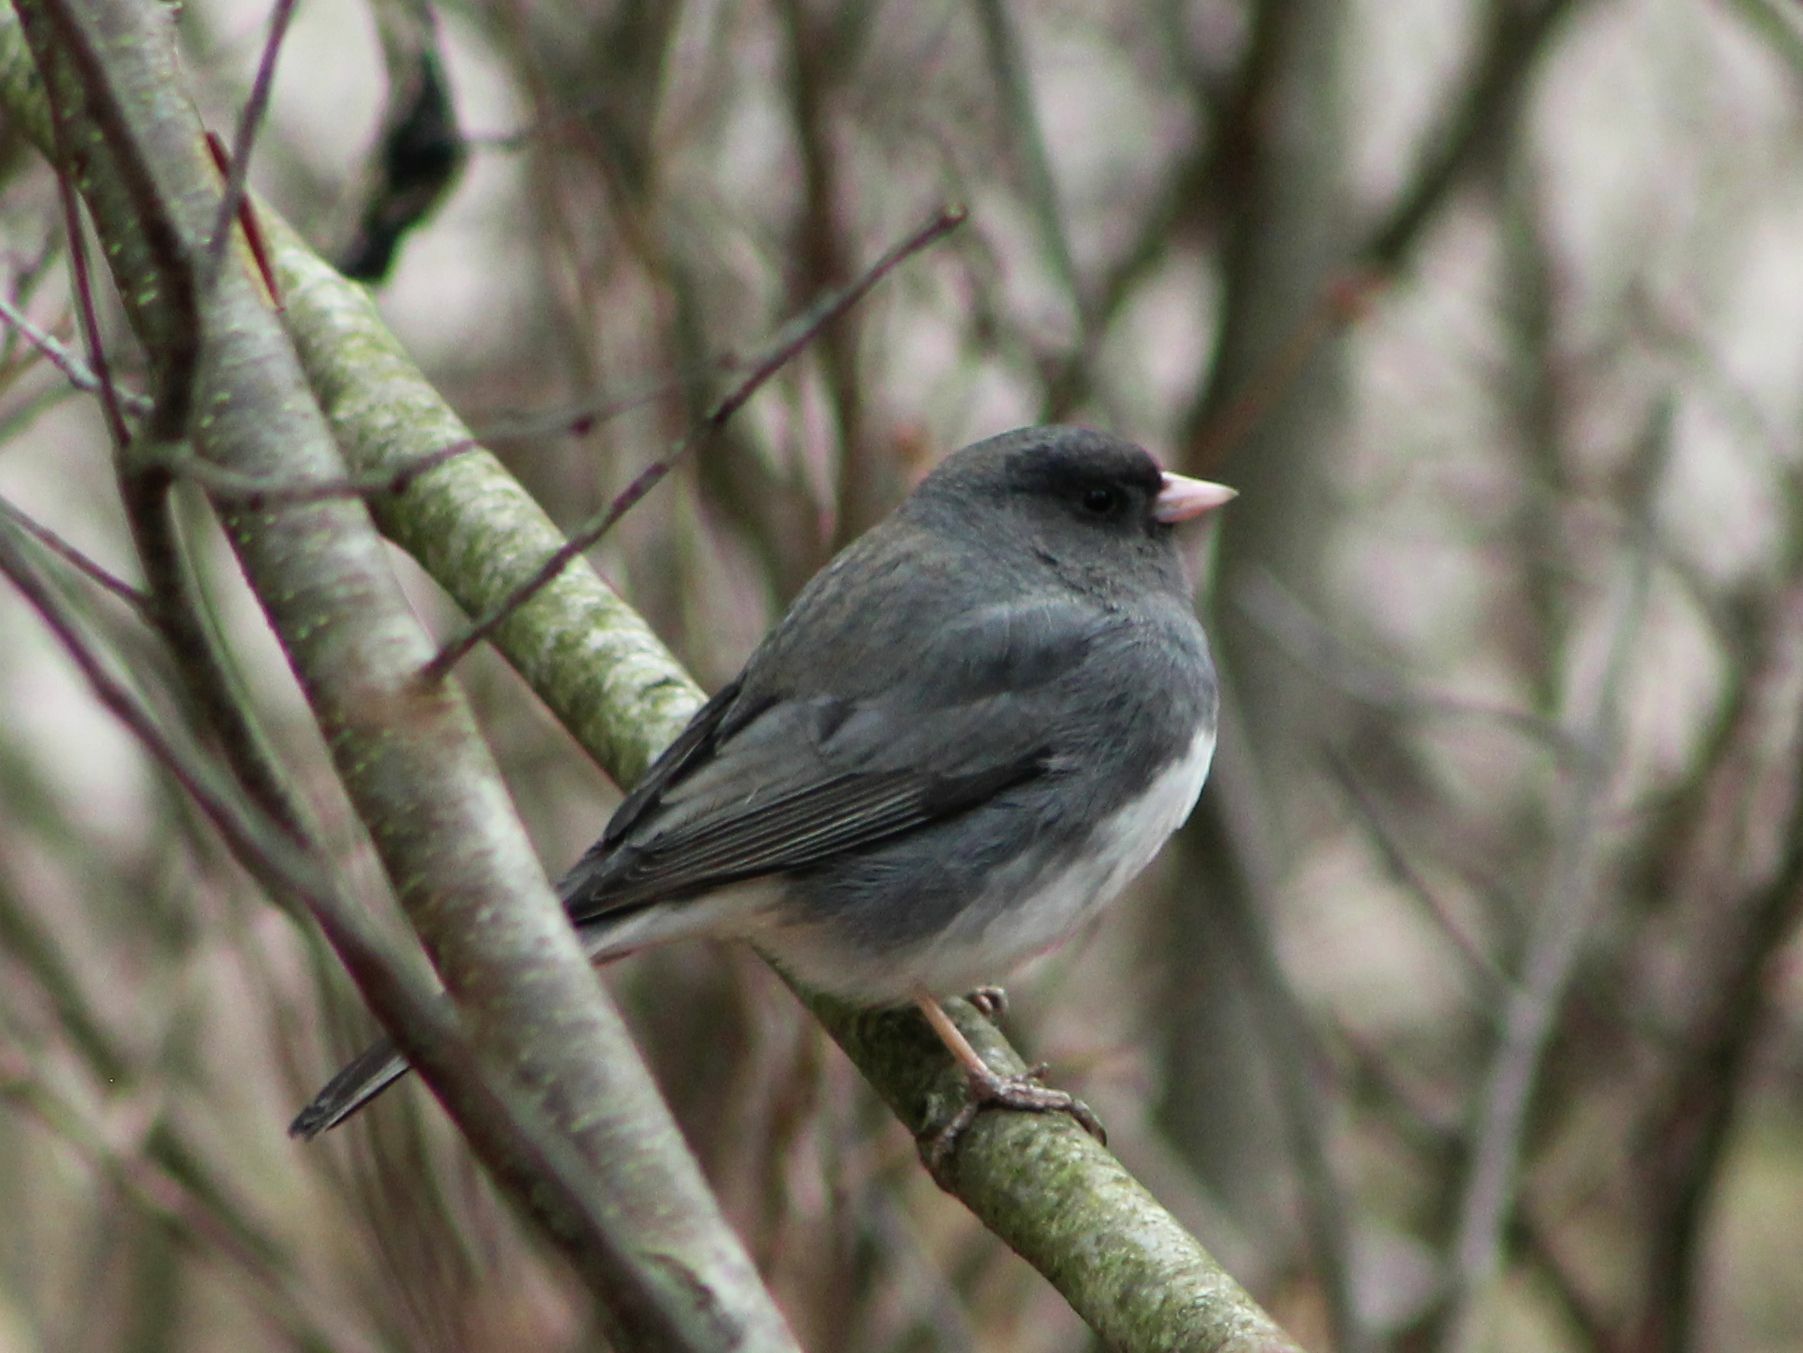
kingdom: Animalia
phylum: Chordata
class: Aves
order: Passeriformes
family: Passerellidae
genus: Junco
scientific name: Junco hyemalis
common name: Dark-eyed junco
